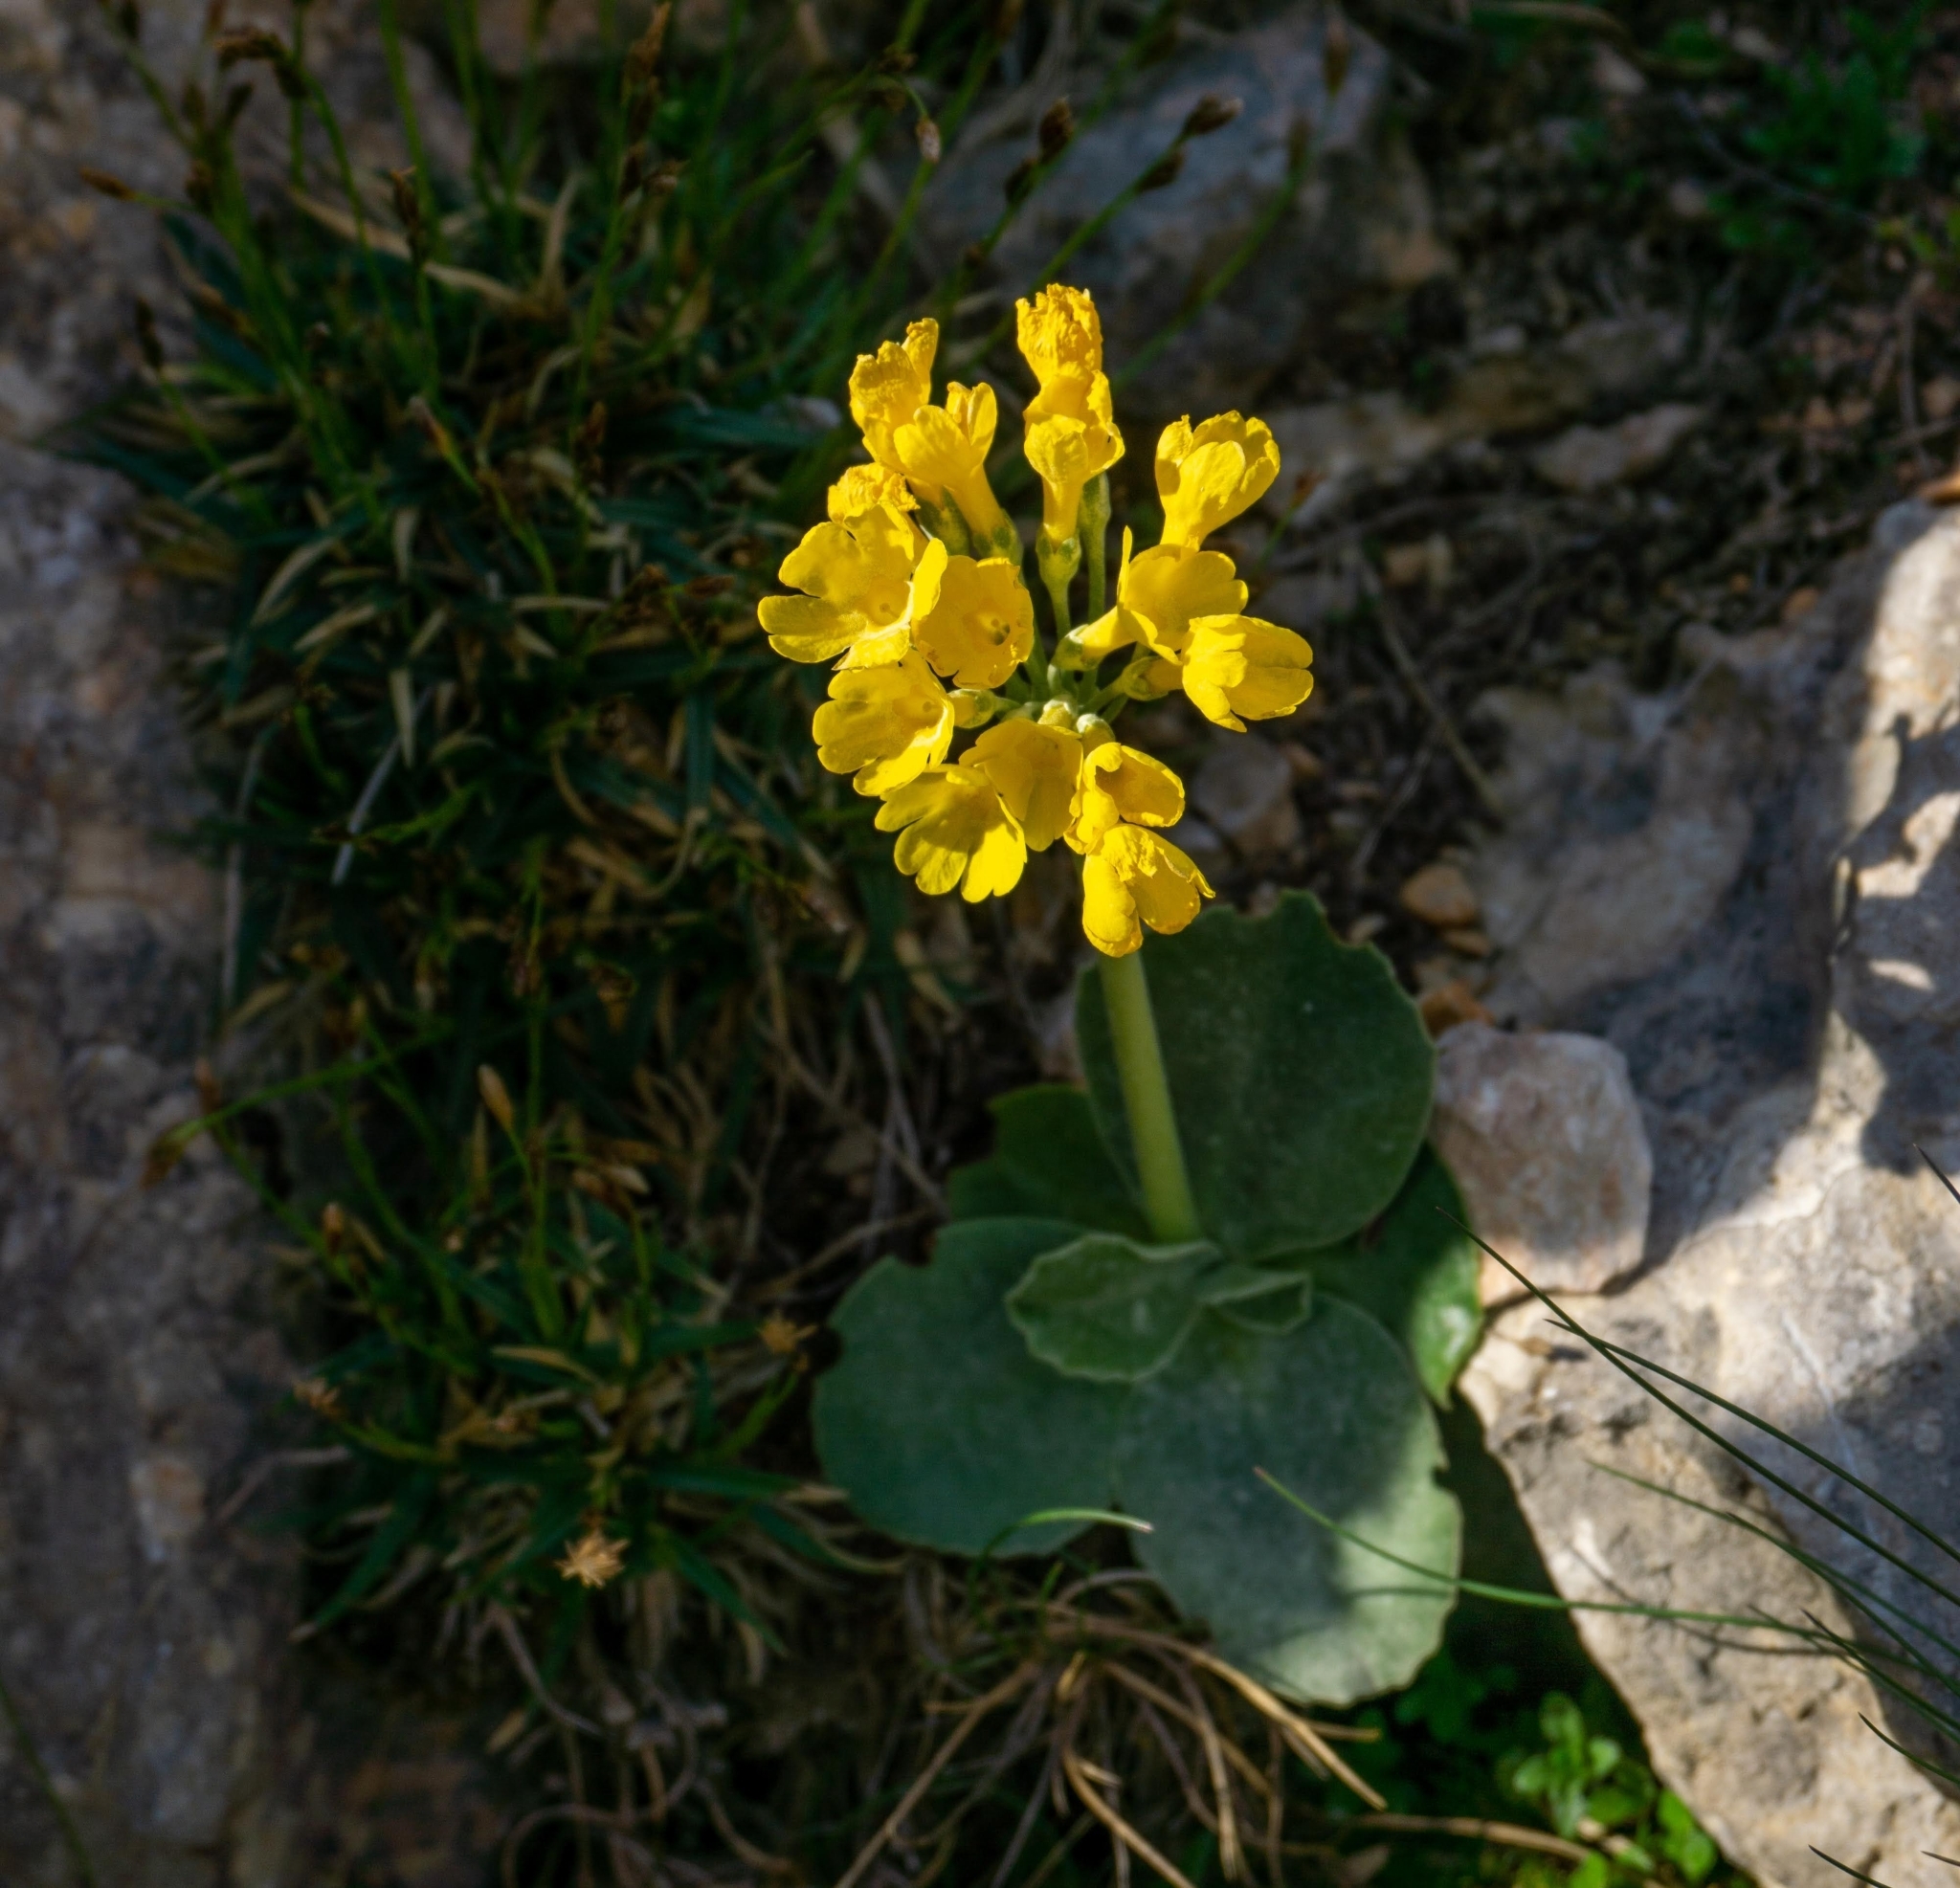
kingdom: Plantae
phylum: Tracheophyta
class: Magnoliopsida
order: Ericales
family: Primulaceae
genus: Primula
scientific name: Primula auricula
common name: Auricula
